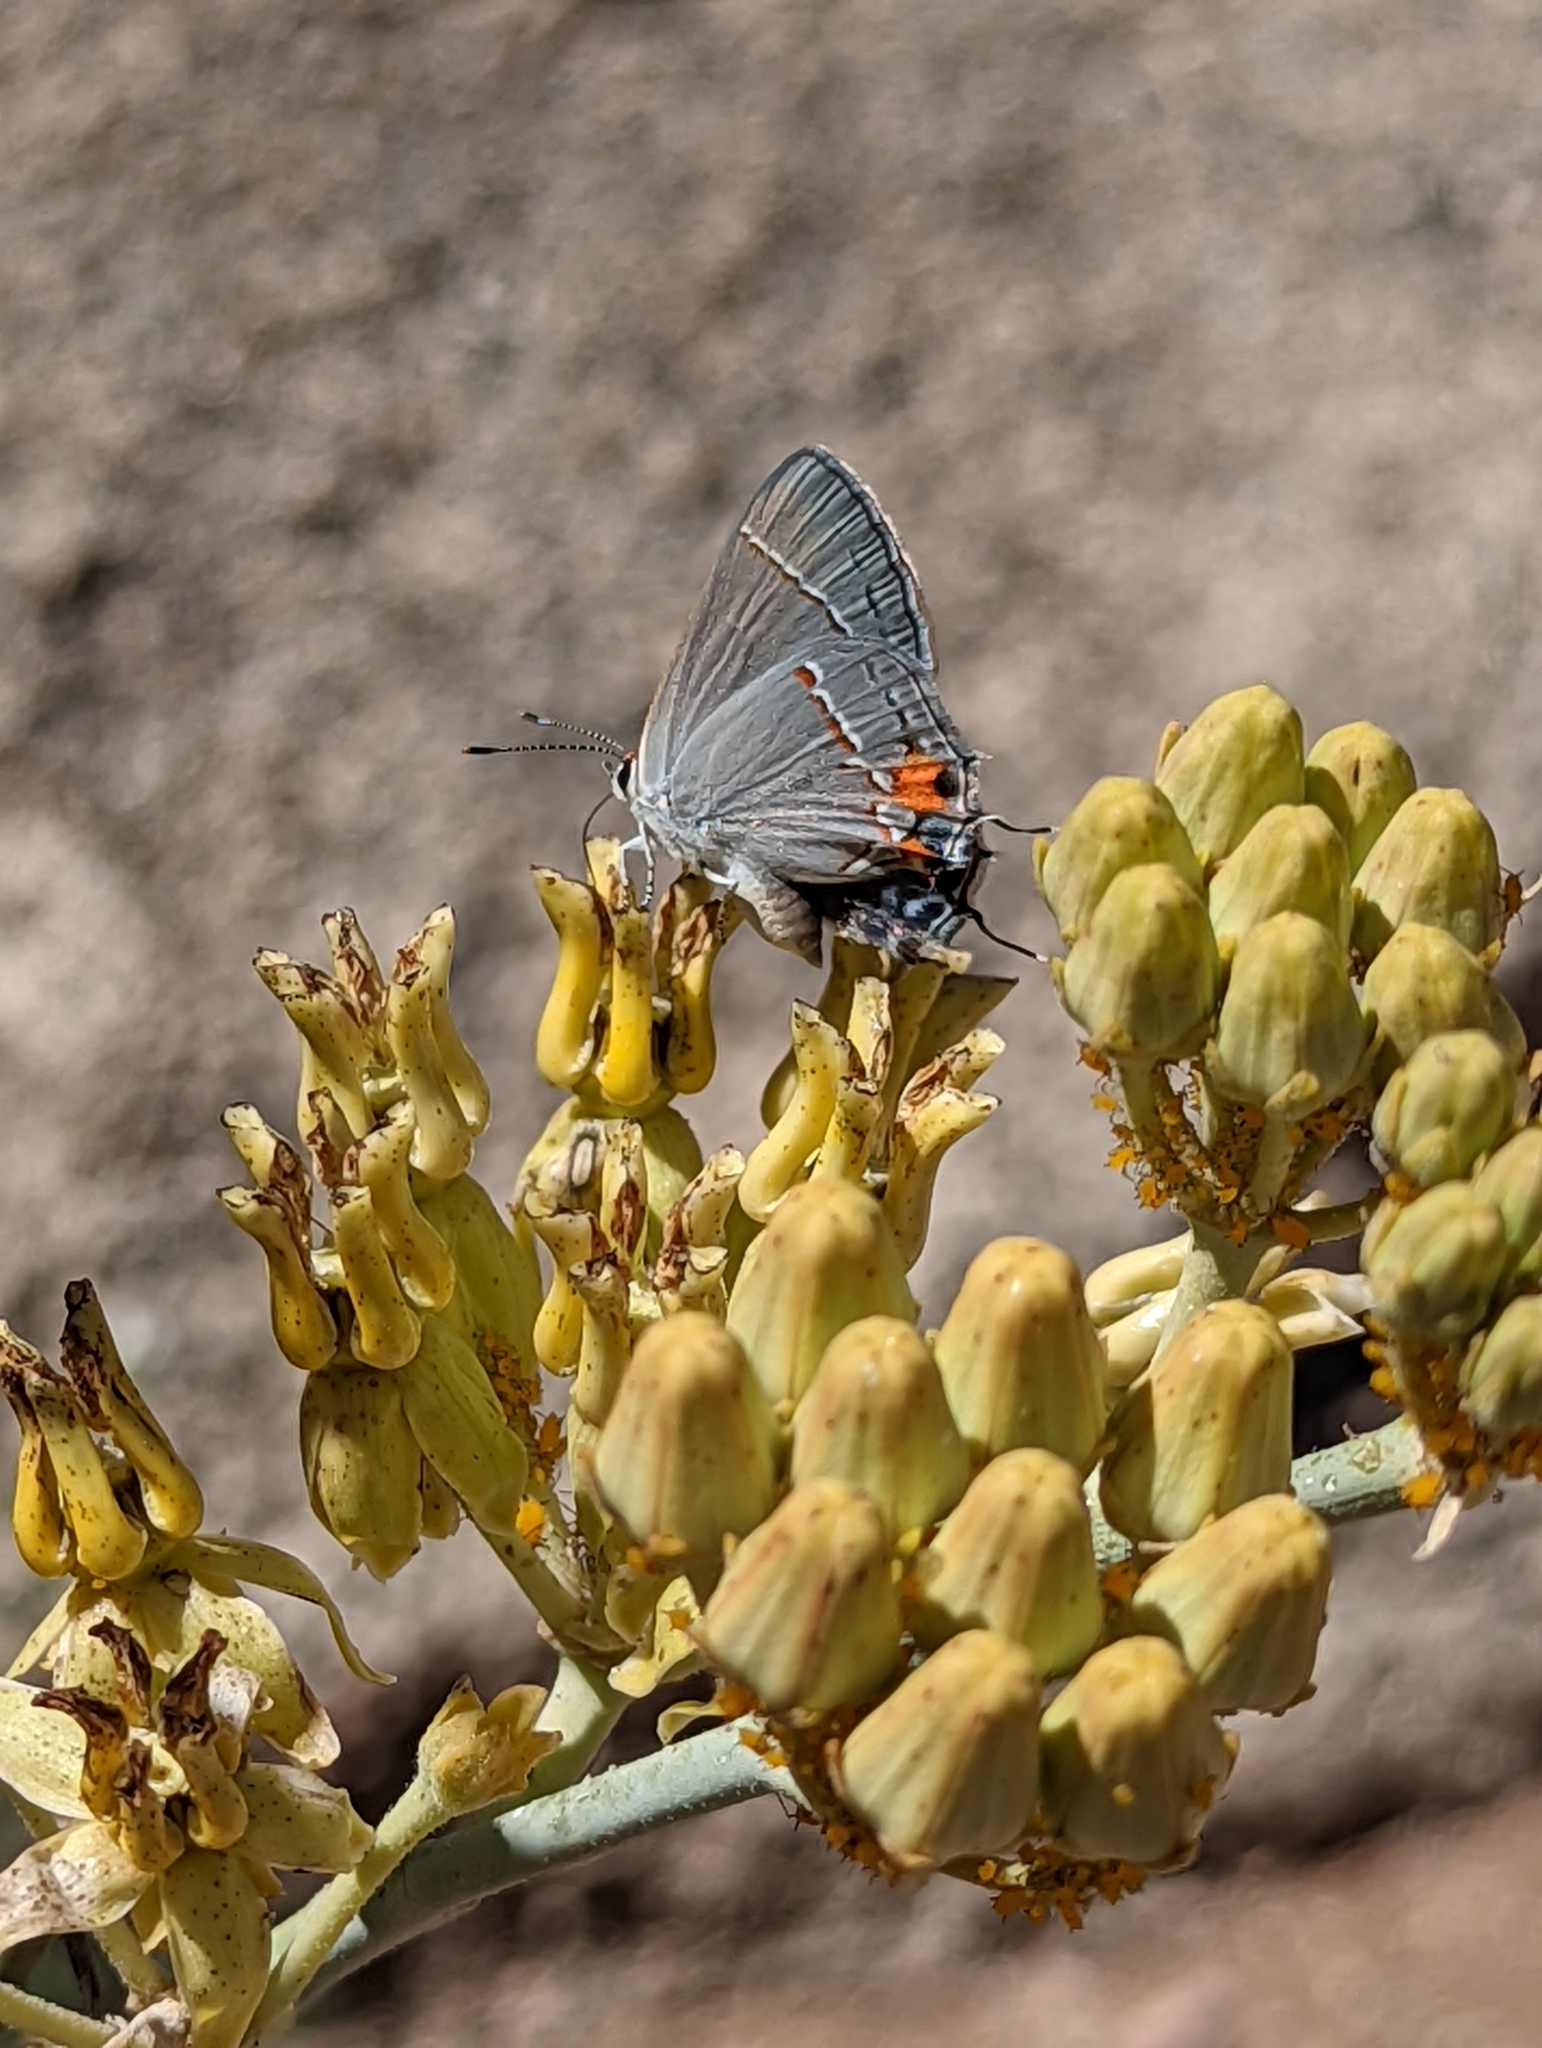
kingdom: Animalia
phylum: Arthropoda
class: Insecta
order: Lepidoptera
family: Lycaenidae
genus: Strymon
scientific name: Strymon melinus
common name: Gray hairstreak
